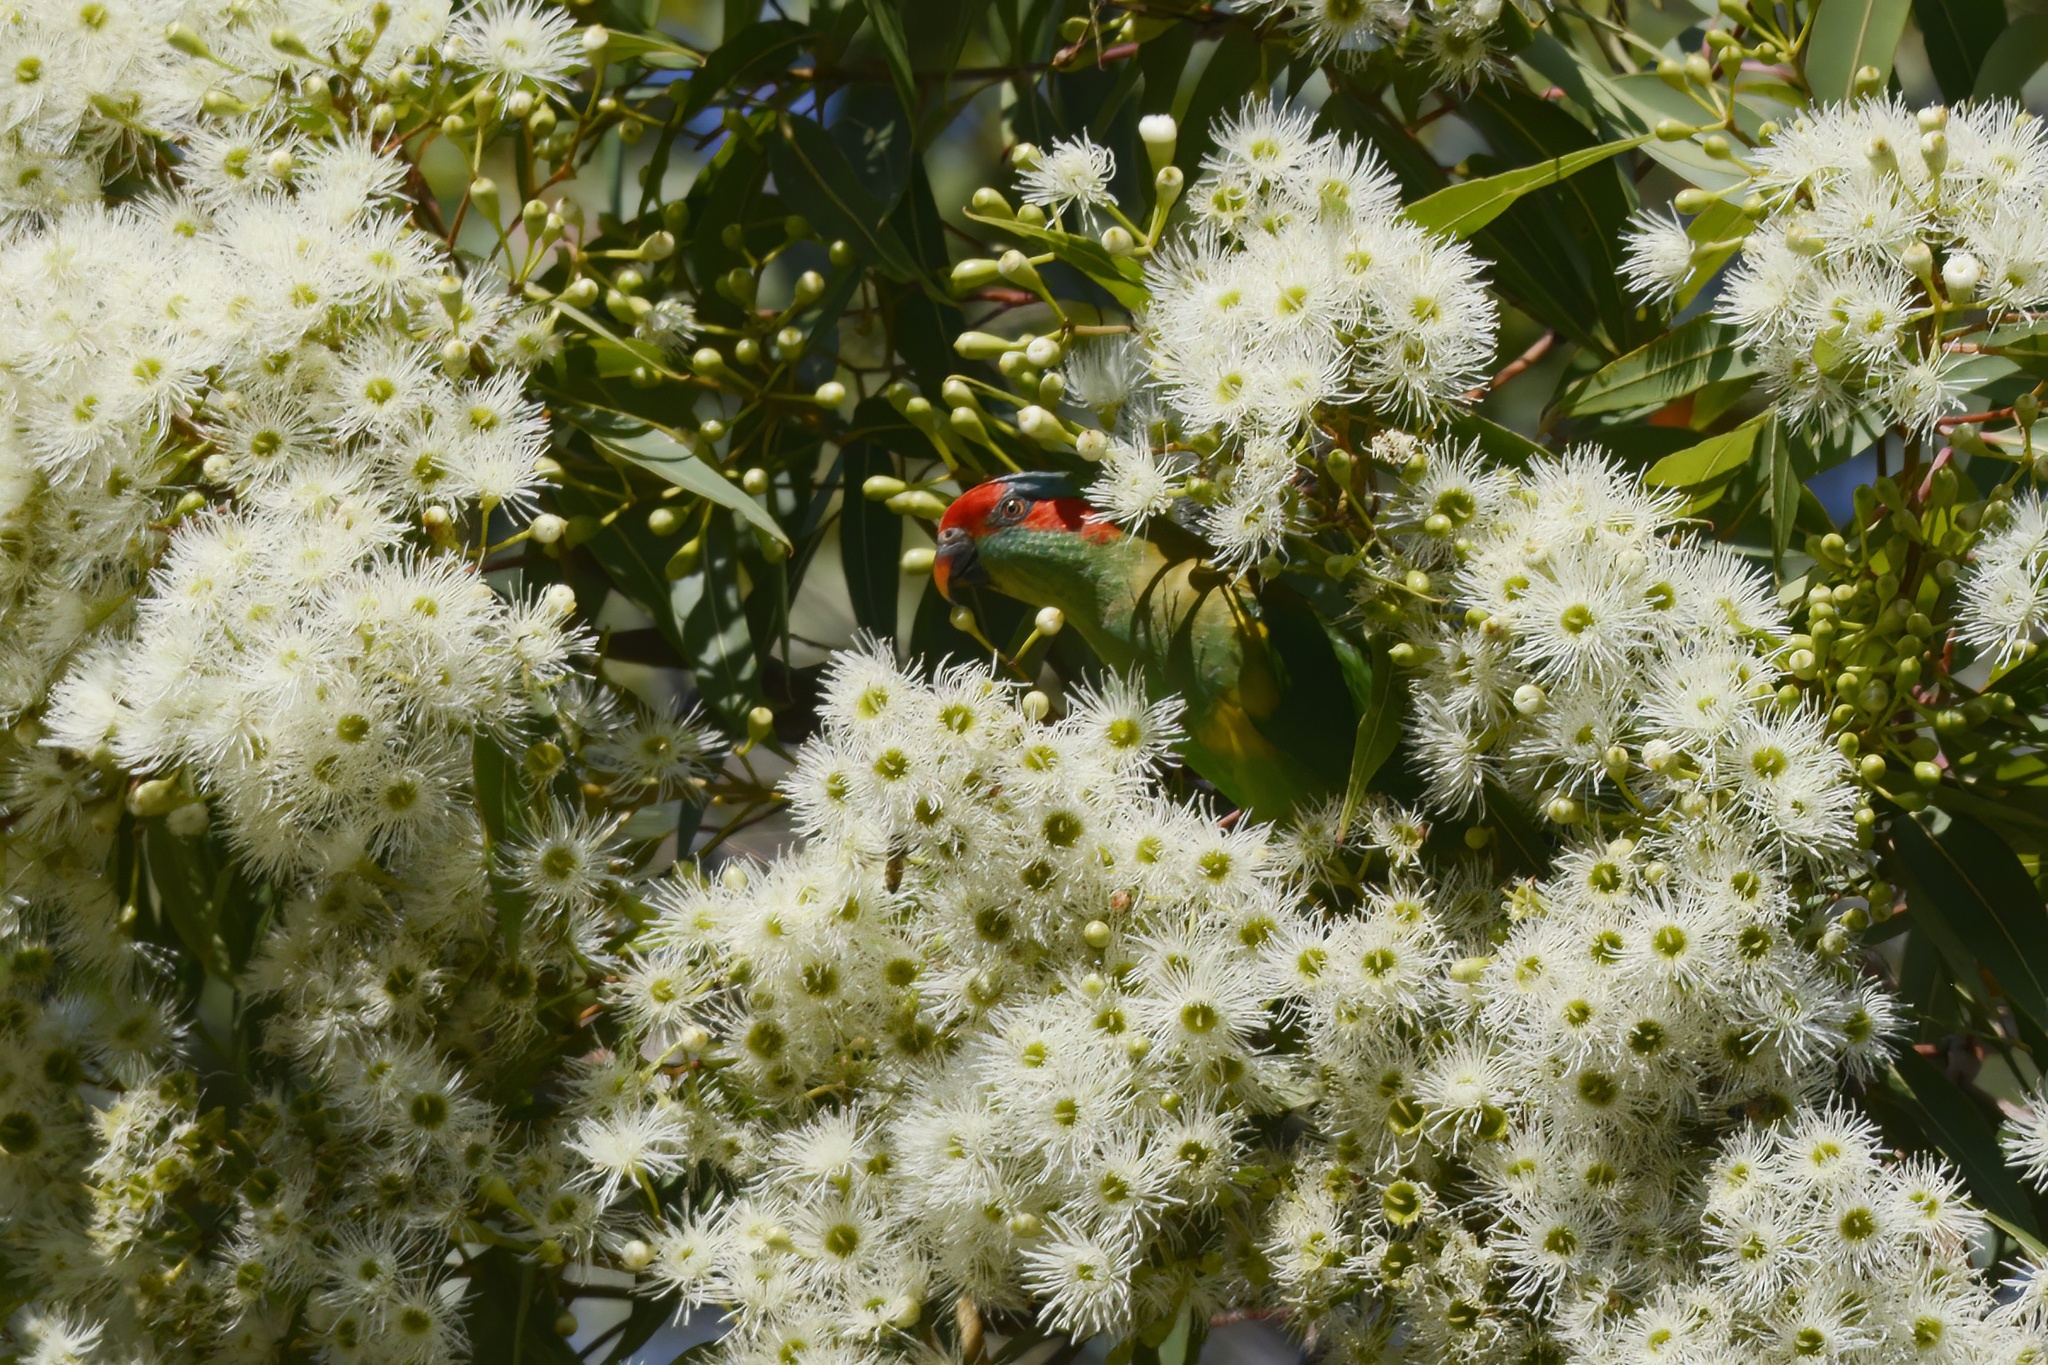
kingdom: Animalia
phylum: Chordata
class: Aves
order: Psittaciformes
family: Psittacidae
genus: Glossopsitta
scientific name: Glossopsitta concinna
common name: Musk lorikeet
